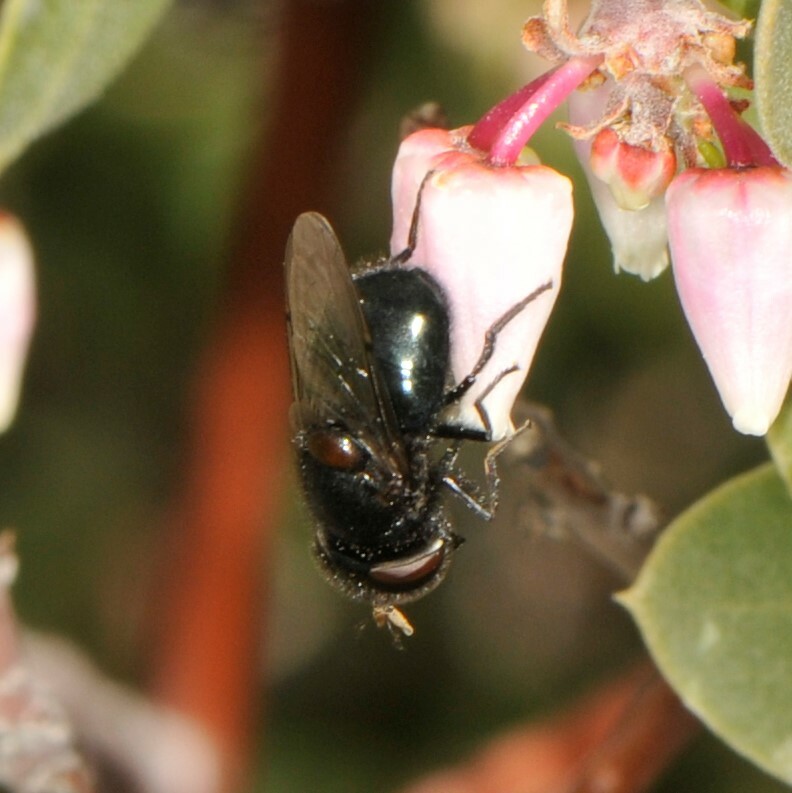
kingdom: Animalia
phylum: Arthropoda
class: Insecta
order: Diptera
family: Syrphidae
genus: Copestylum
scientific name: Copestylum comstocki
